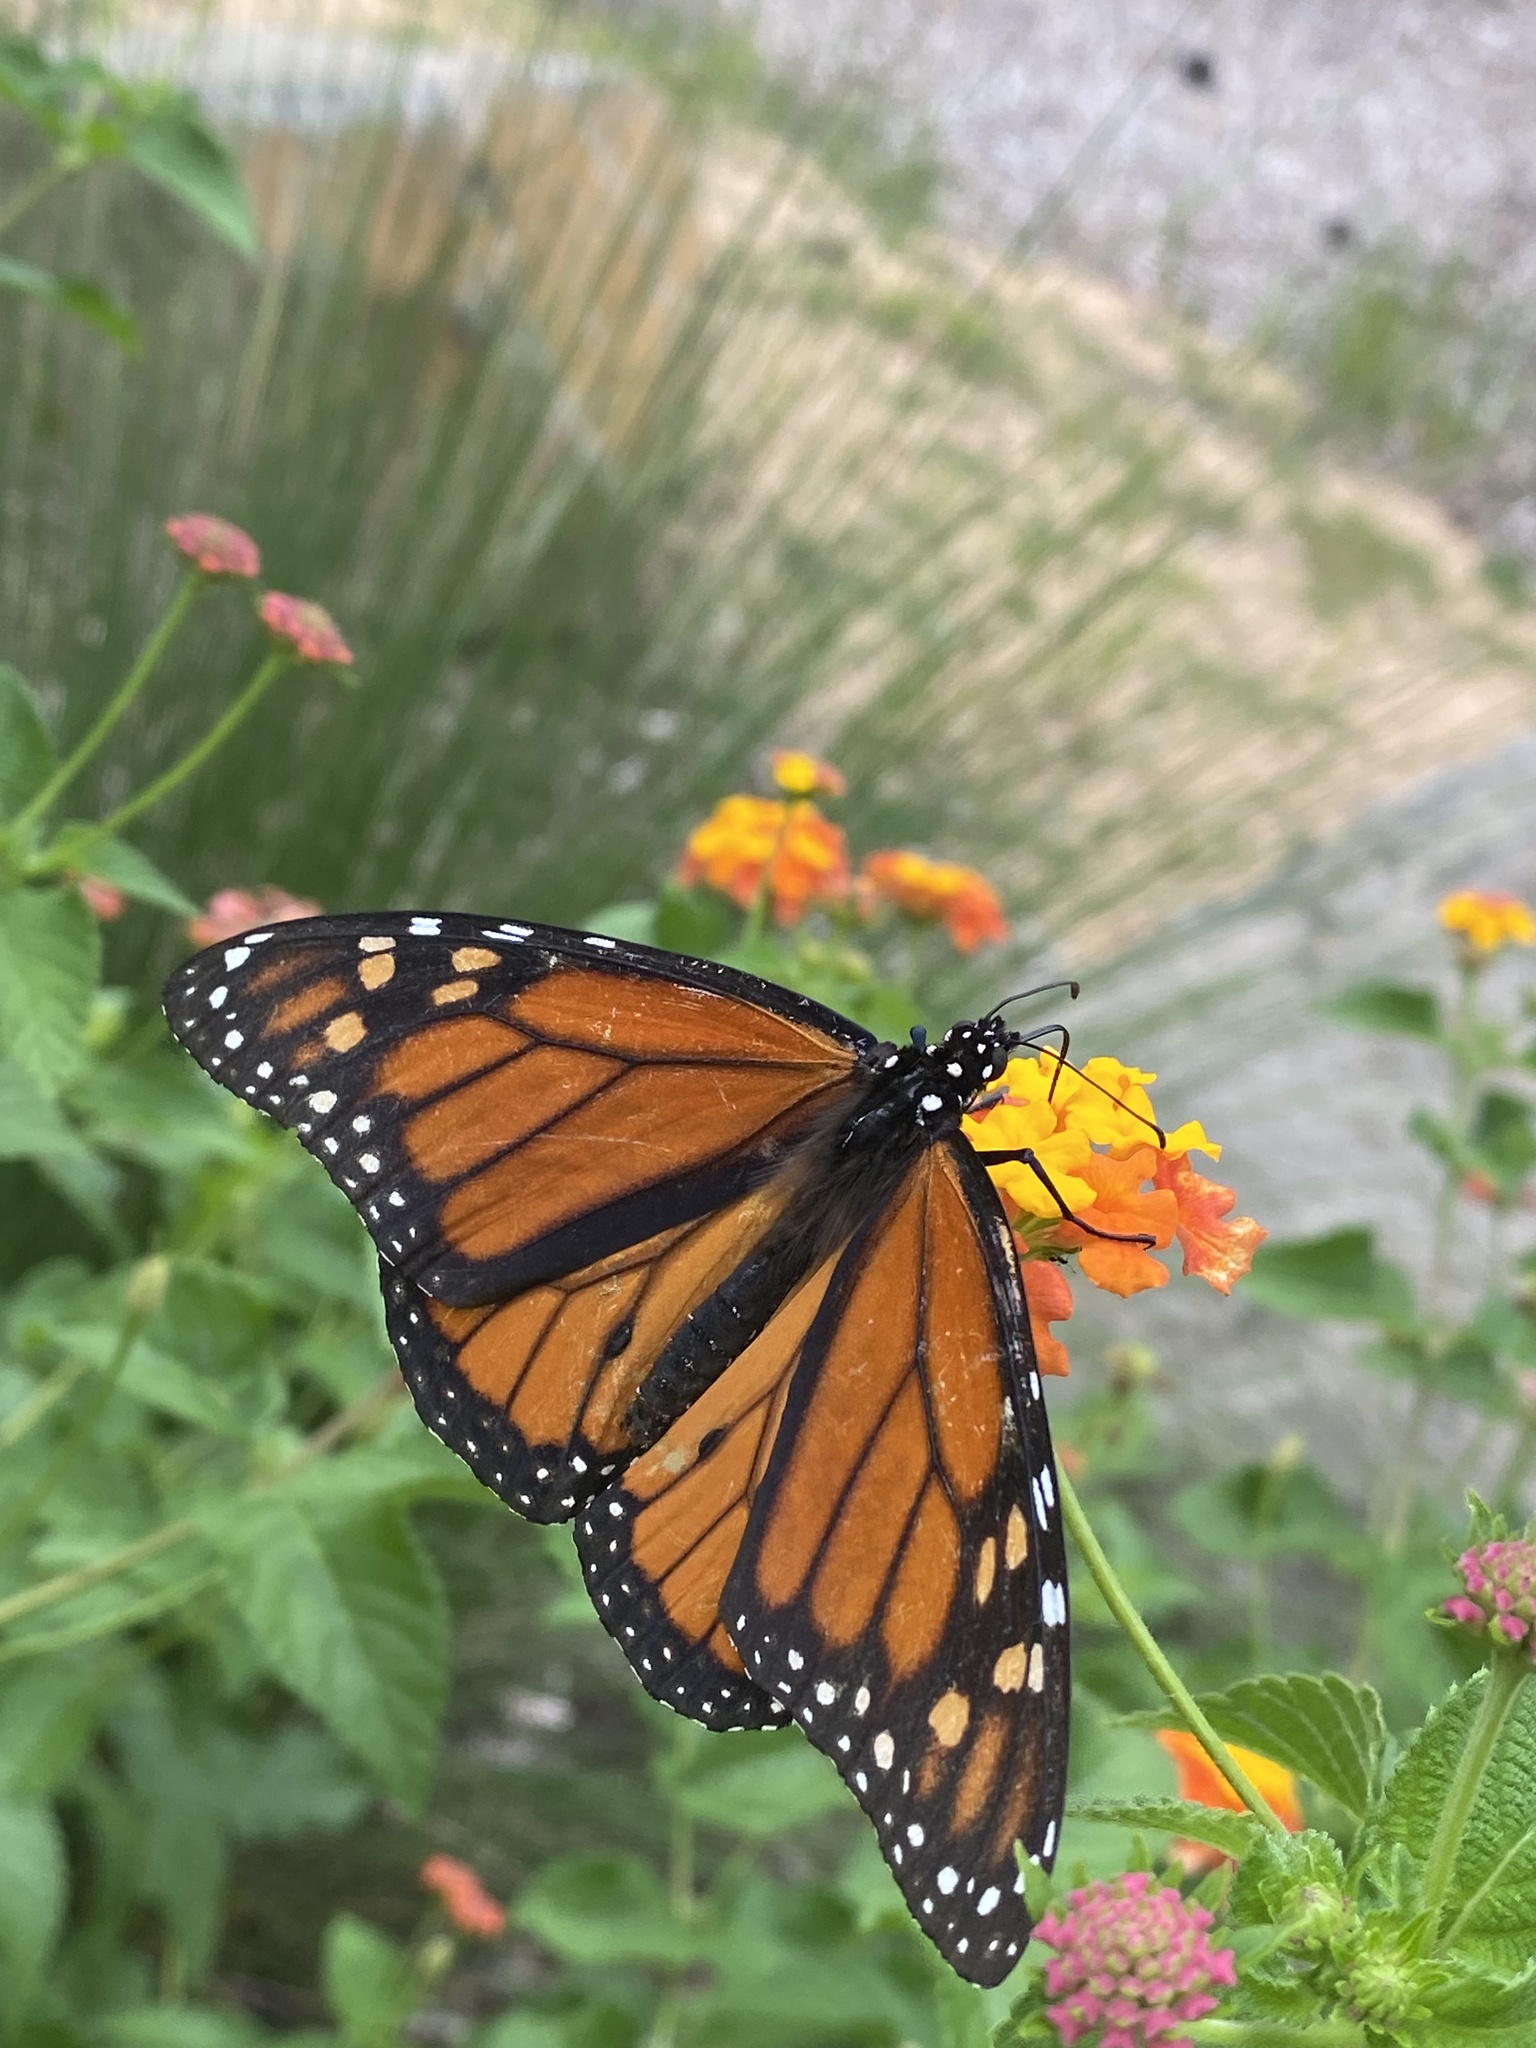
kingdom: Animalia
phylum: Arthropoda
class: Insecta
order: Lepidoptera
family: Nymphalidae
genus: Danaus
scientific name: Danaus plexippus
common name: Monarch
